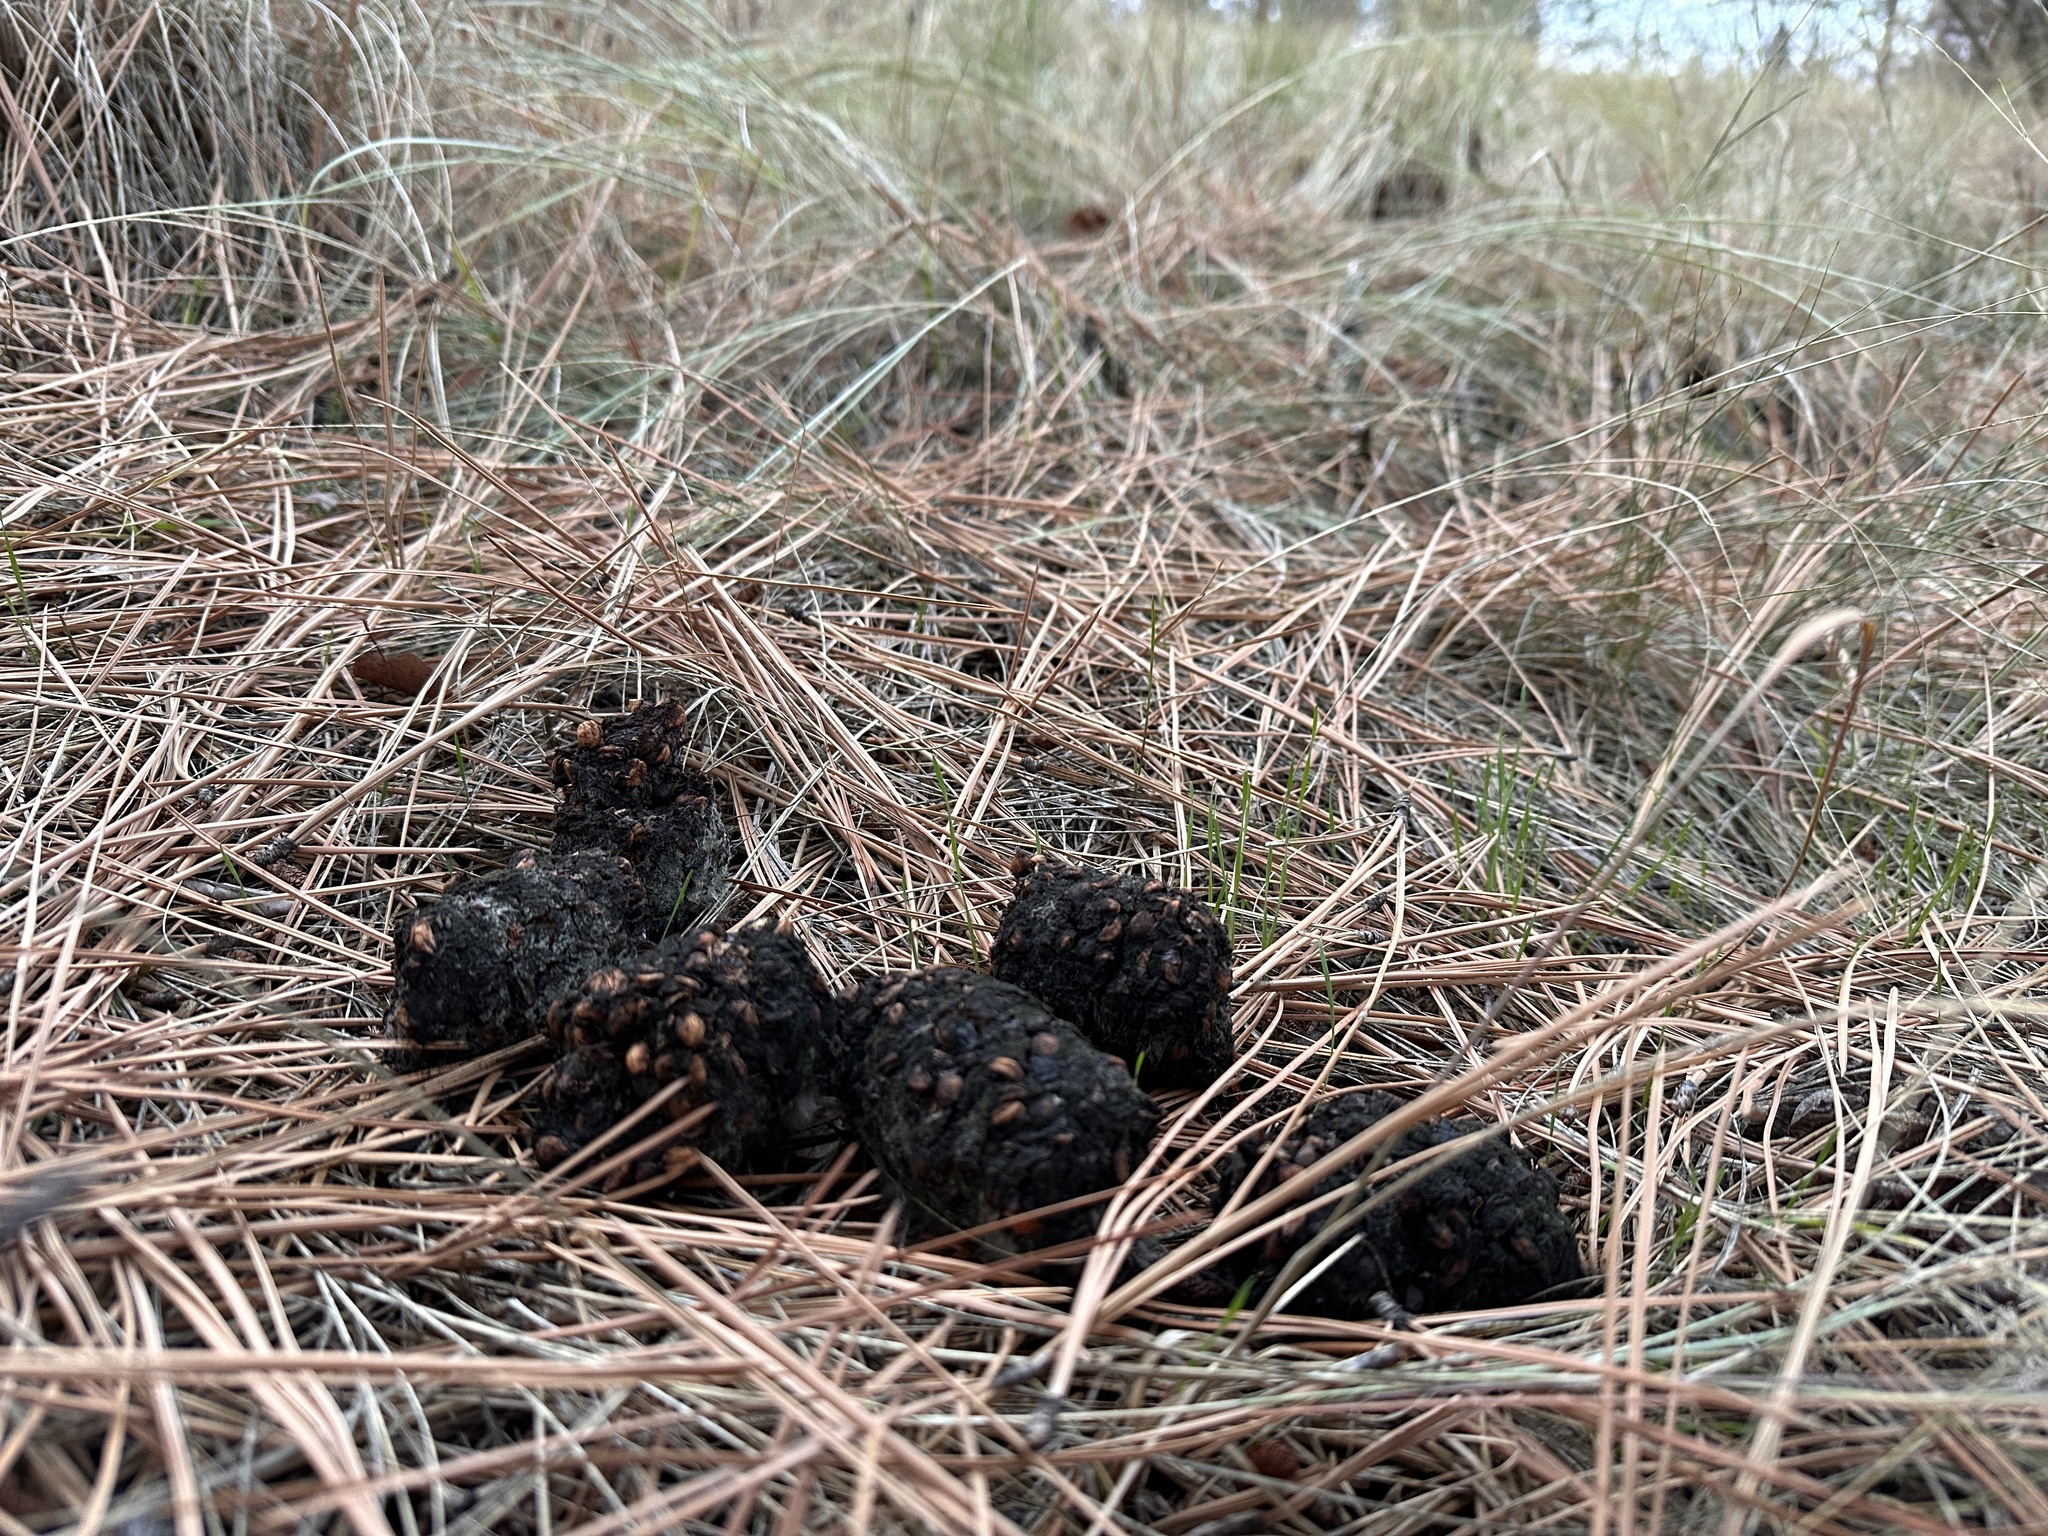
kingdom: Animalia
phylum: Chordata
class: Mammalia
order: Carnivora
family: Ursidae
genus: Ursus
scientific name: Ursus americanus
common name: American black bear
